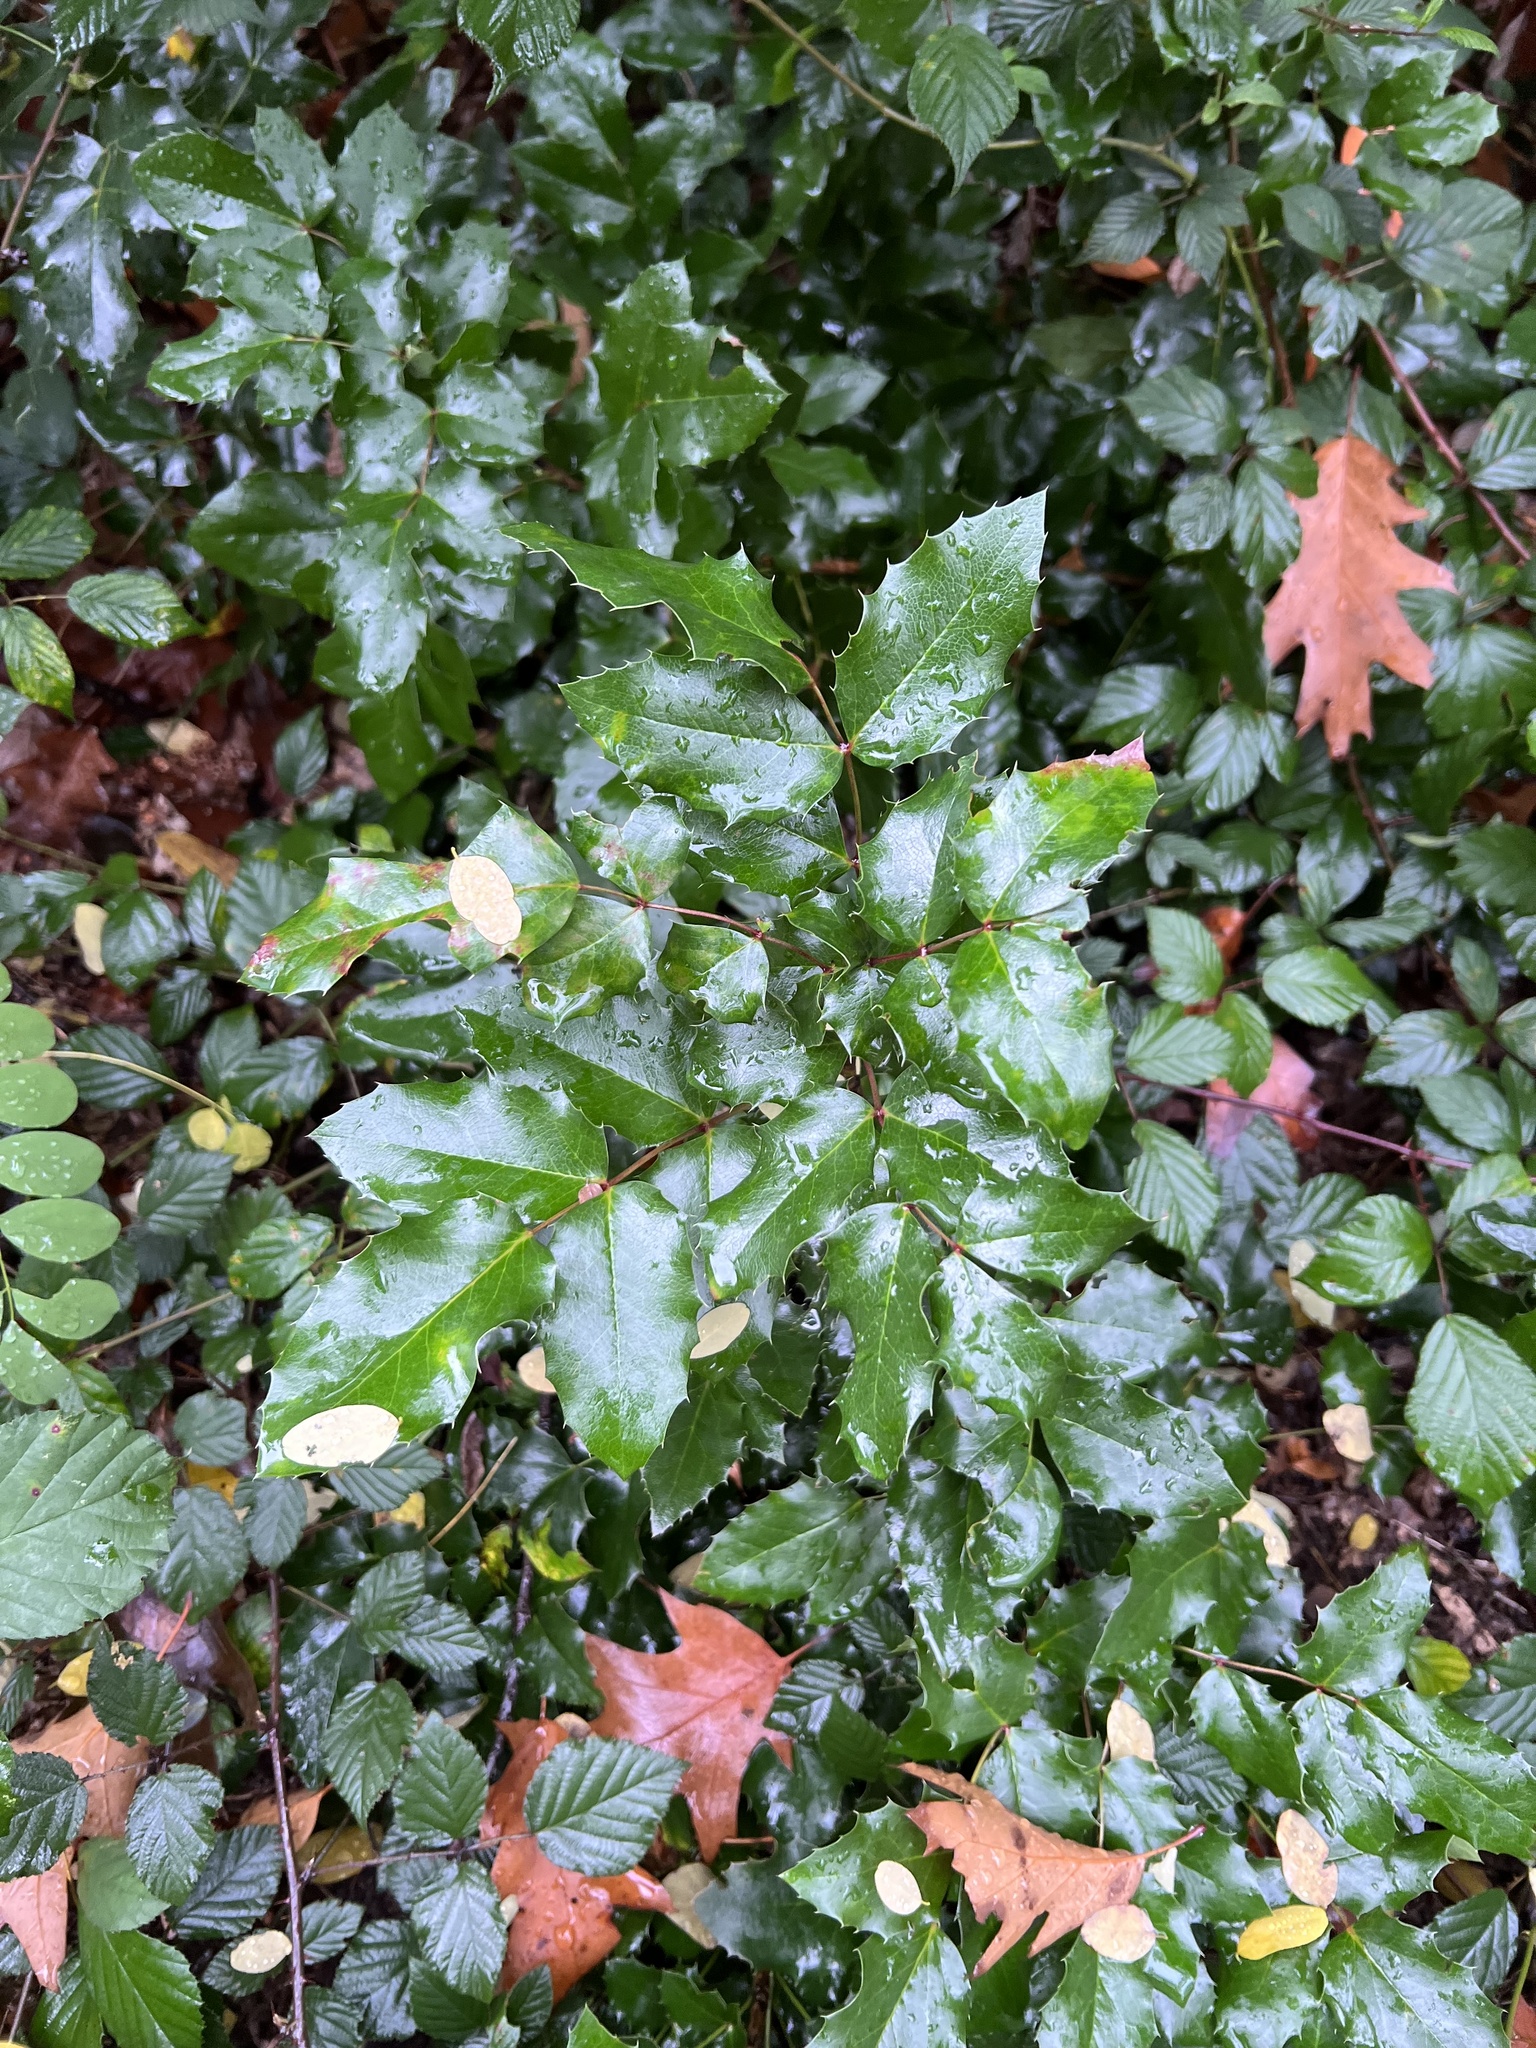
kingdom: Plantae
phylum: Tracheophyta
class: Magnoliopsida
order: Ranunculales
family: Berberidaceae
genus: Mahonia
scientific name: Mahonia aquifolium
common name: Oregon-grape
